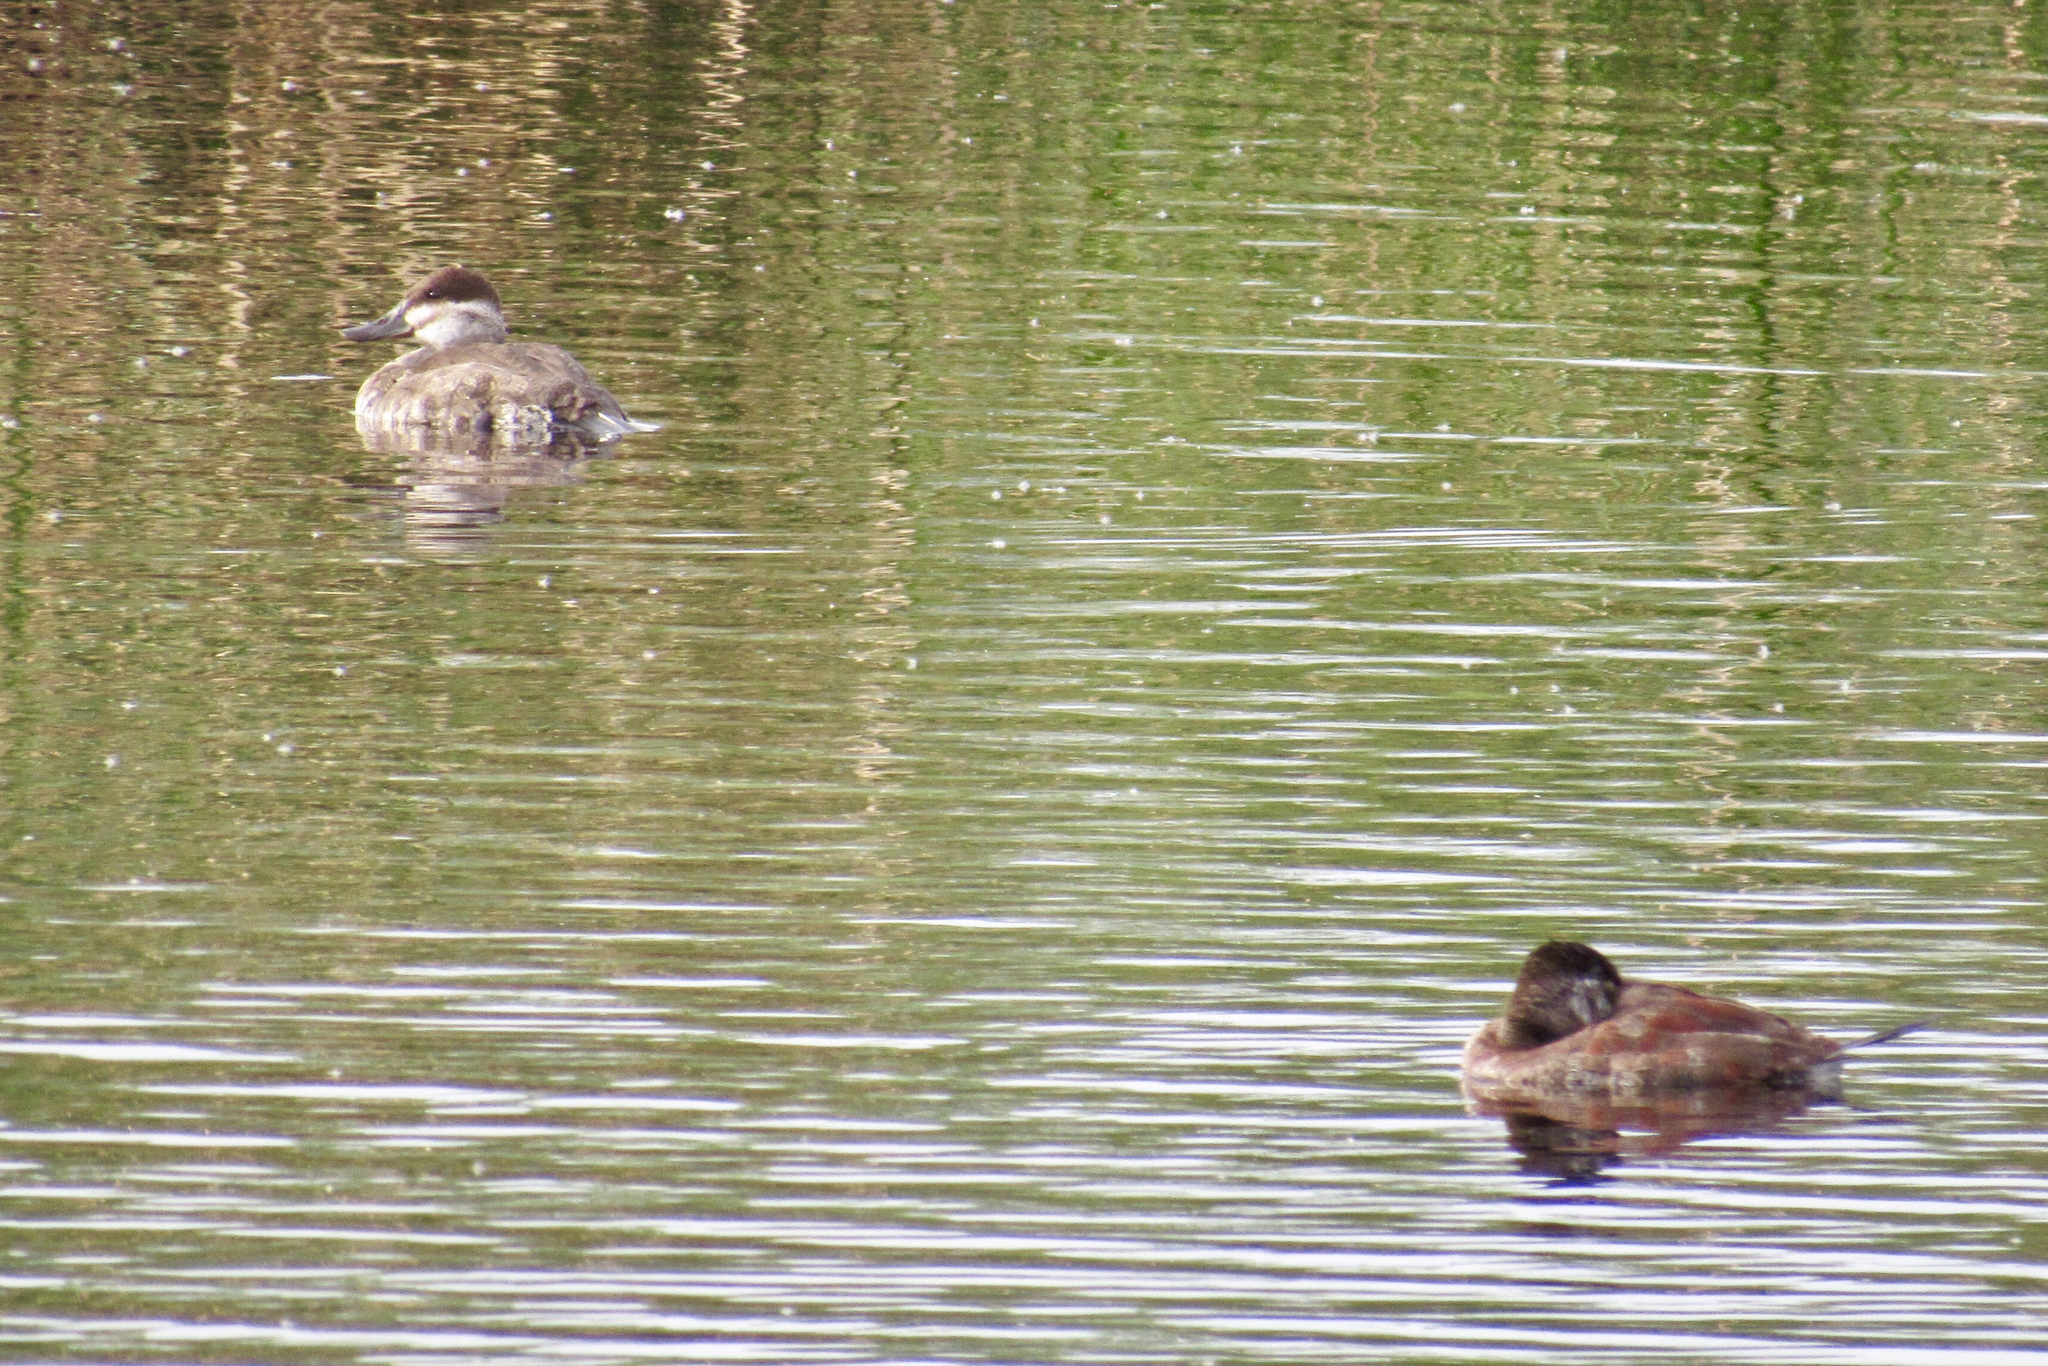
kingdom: Animalia
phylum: Chordata
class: Aves
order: Anseriformes
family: Anatidae
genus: Oxyura
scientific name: Oxyura jamaicensis
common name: Ruddy duck
